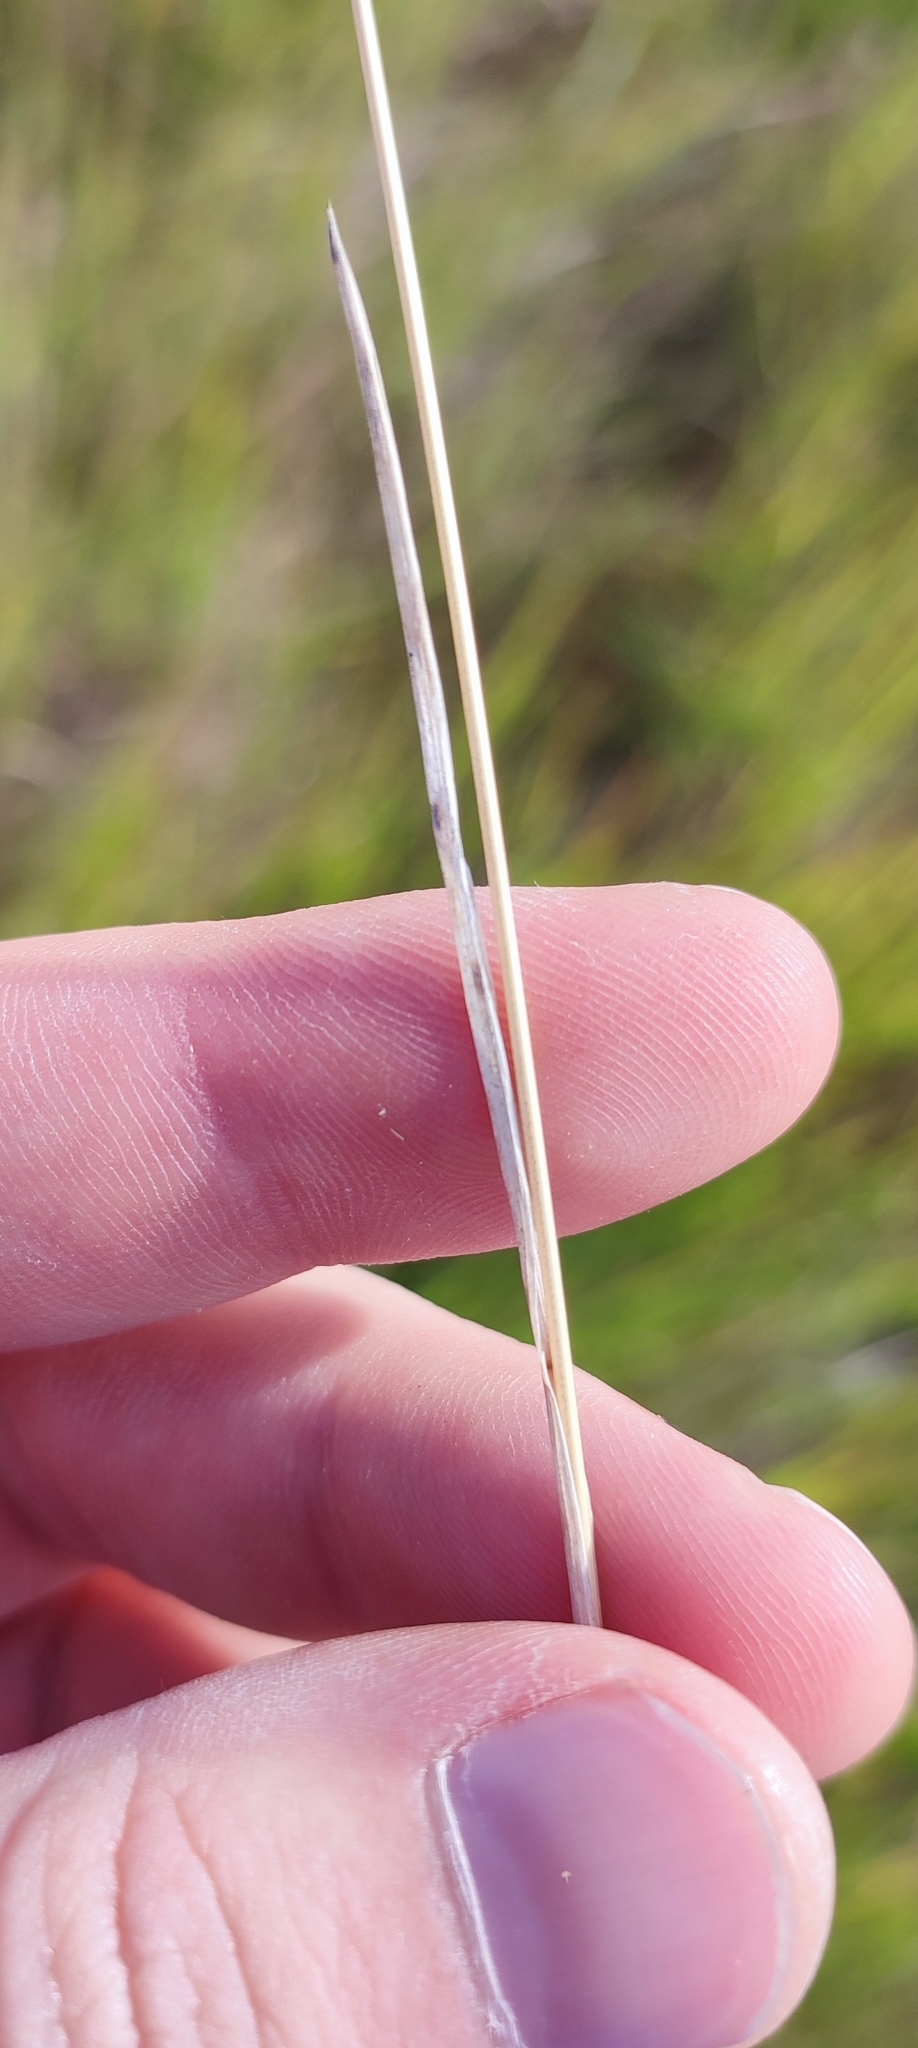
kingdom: Plantae
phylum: Tracheophyta
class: Liliopsida
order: Poales
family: Poaceae
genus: Poa
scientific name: Poa pratensis
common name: Kentucky bluegrass
